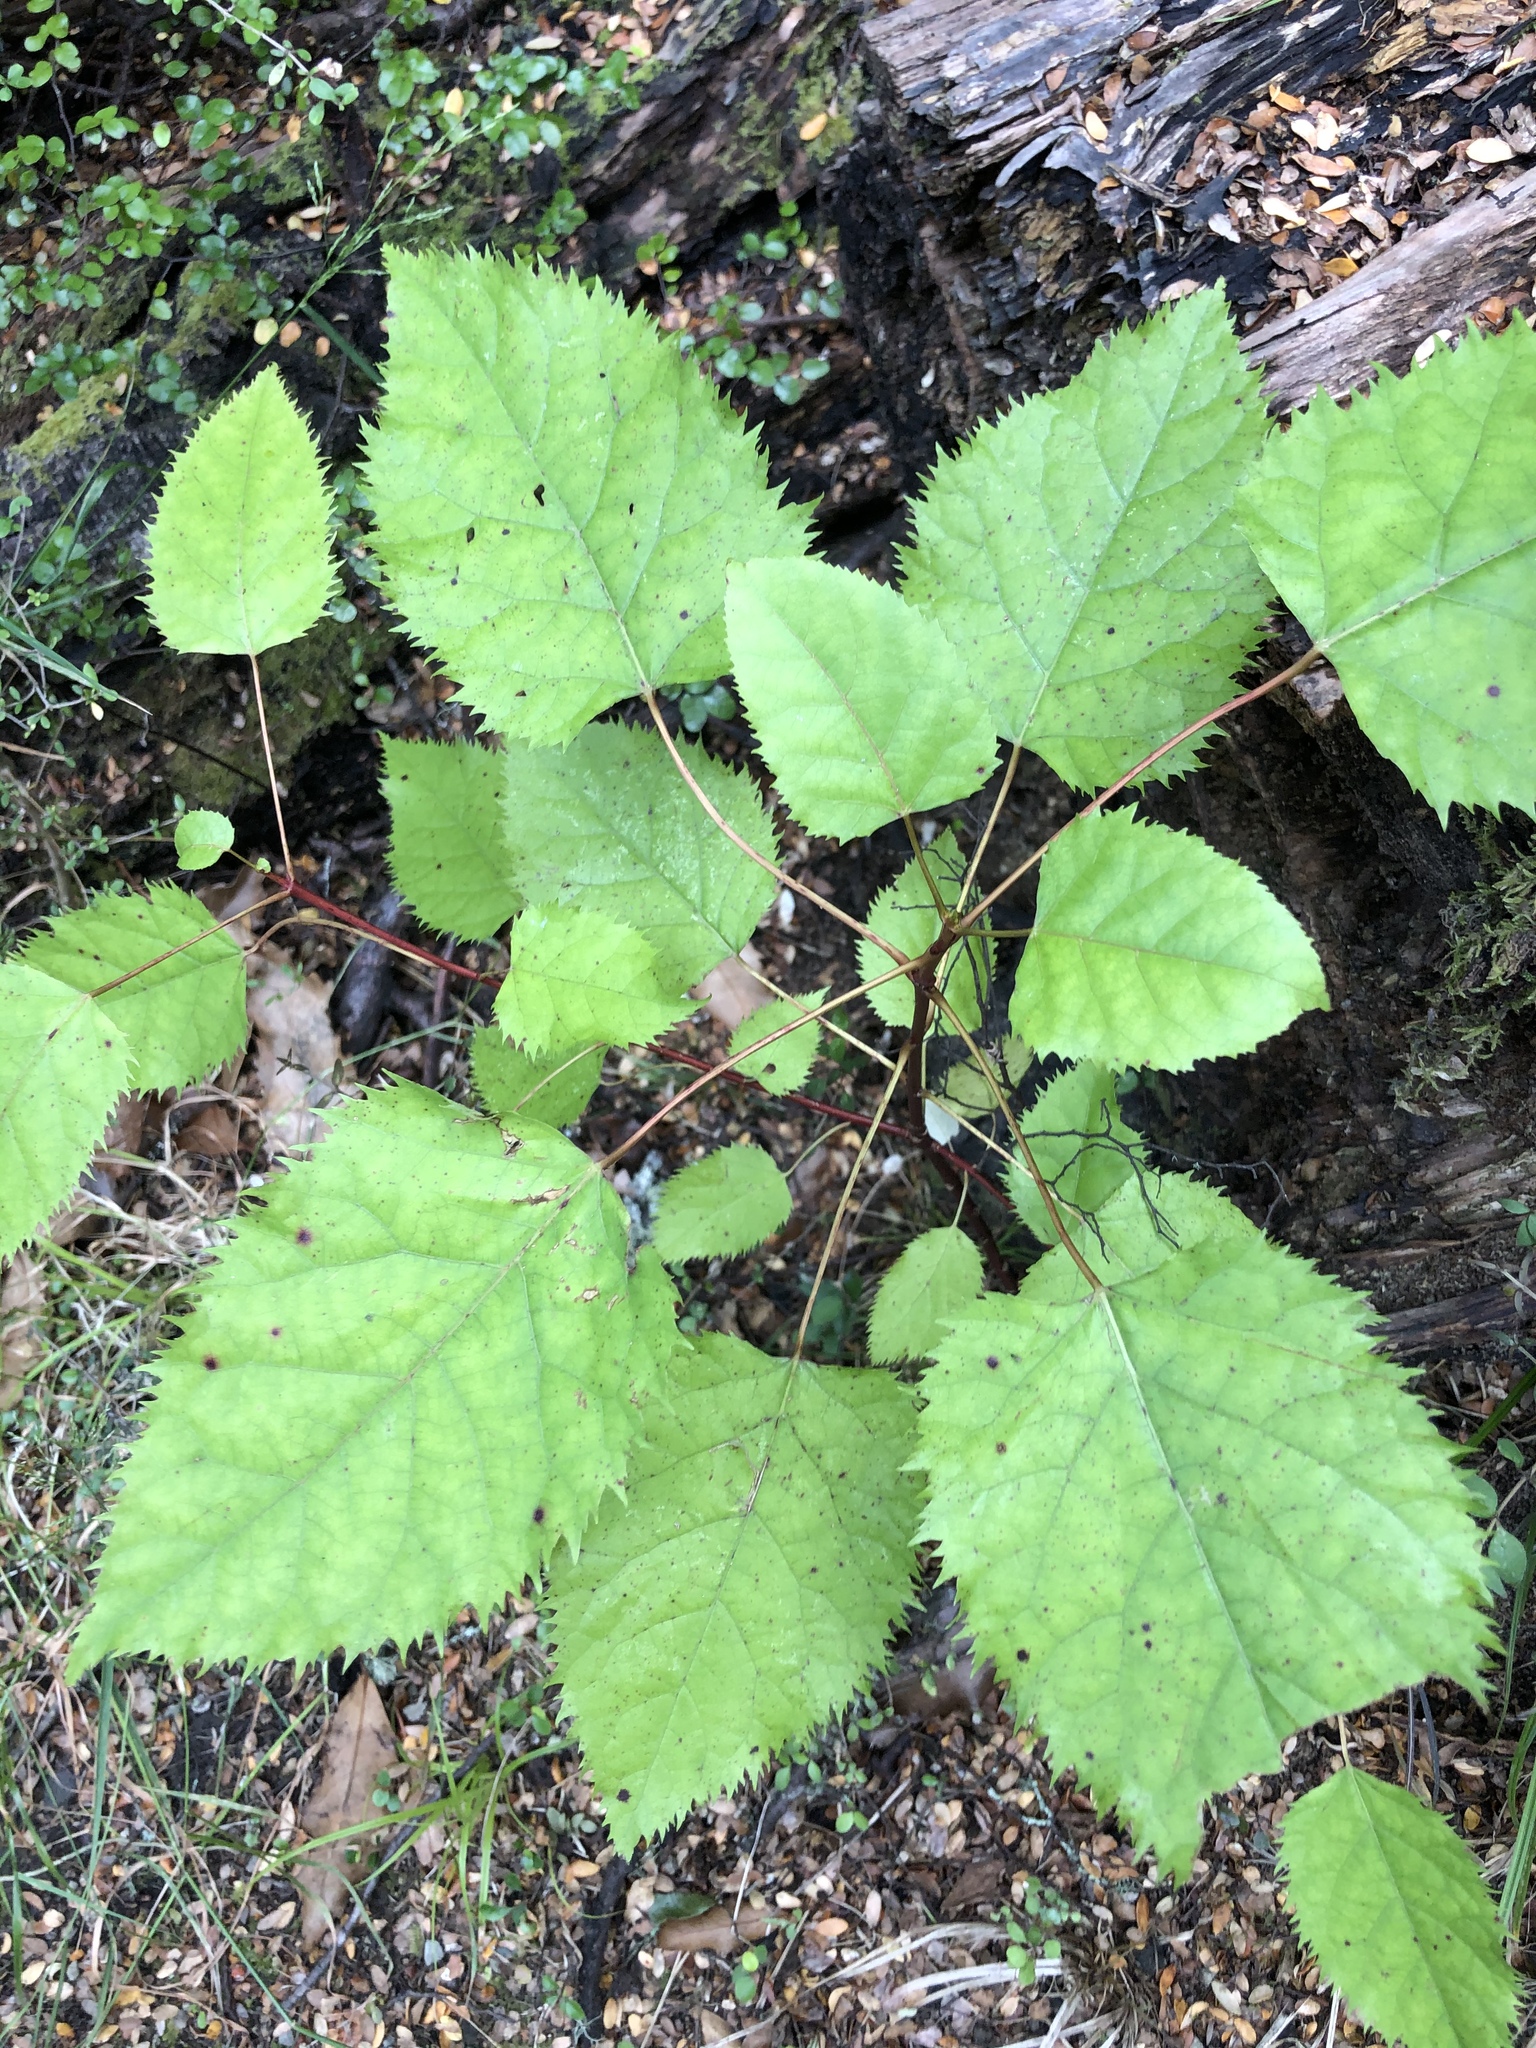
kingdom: Plantae
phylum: Tracheophyta
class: Magnoliopsida
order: Oxalidales
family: Elaeocarpaceae
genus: Aristotelia
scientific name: Aristotelia serrata
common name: New zealand wineberry
